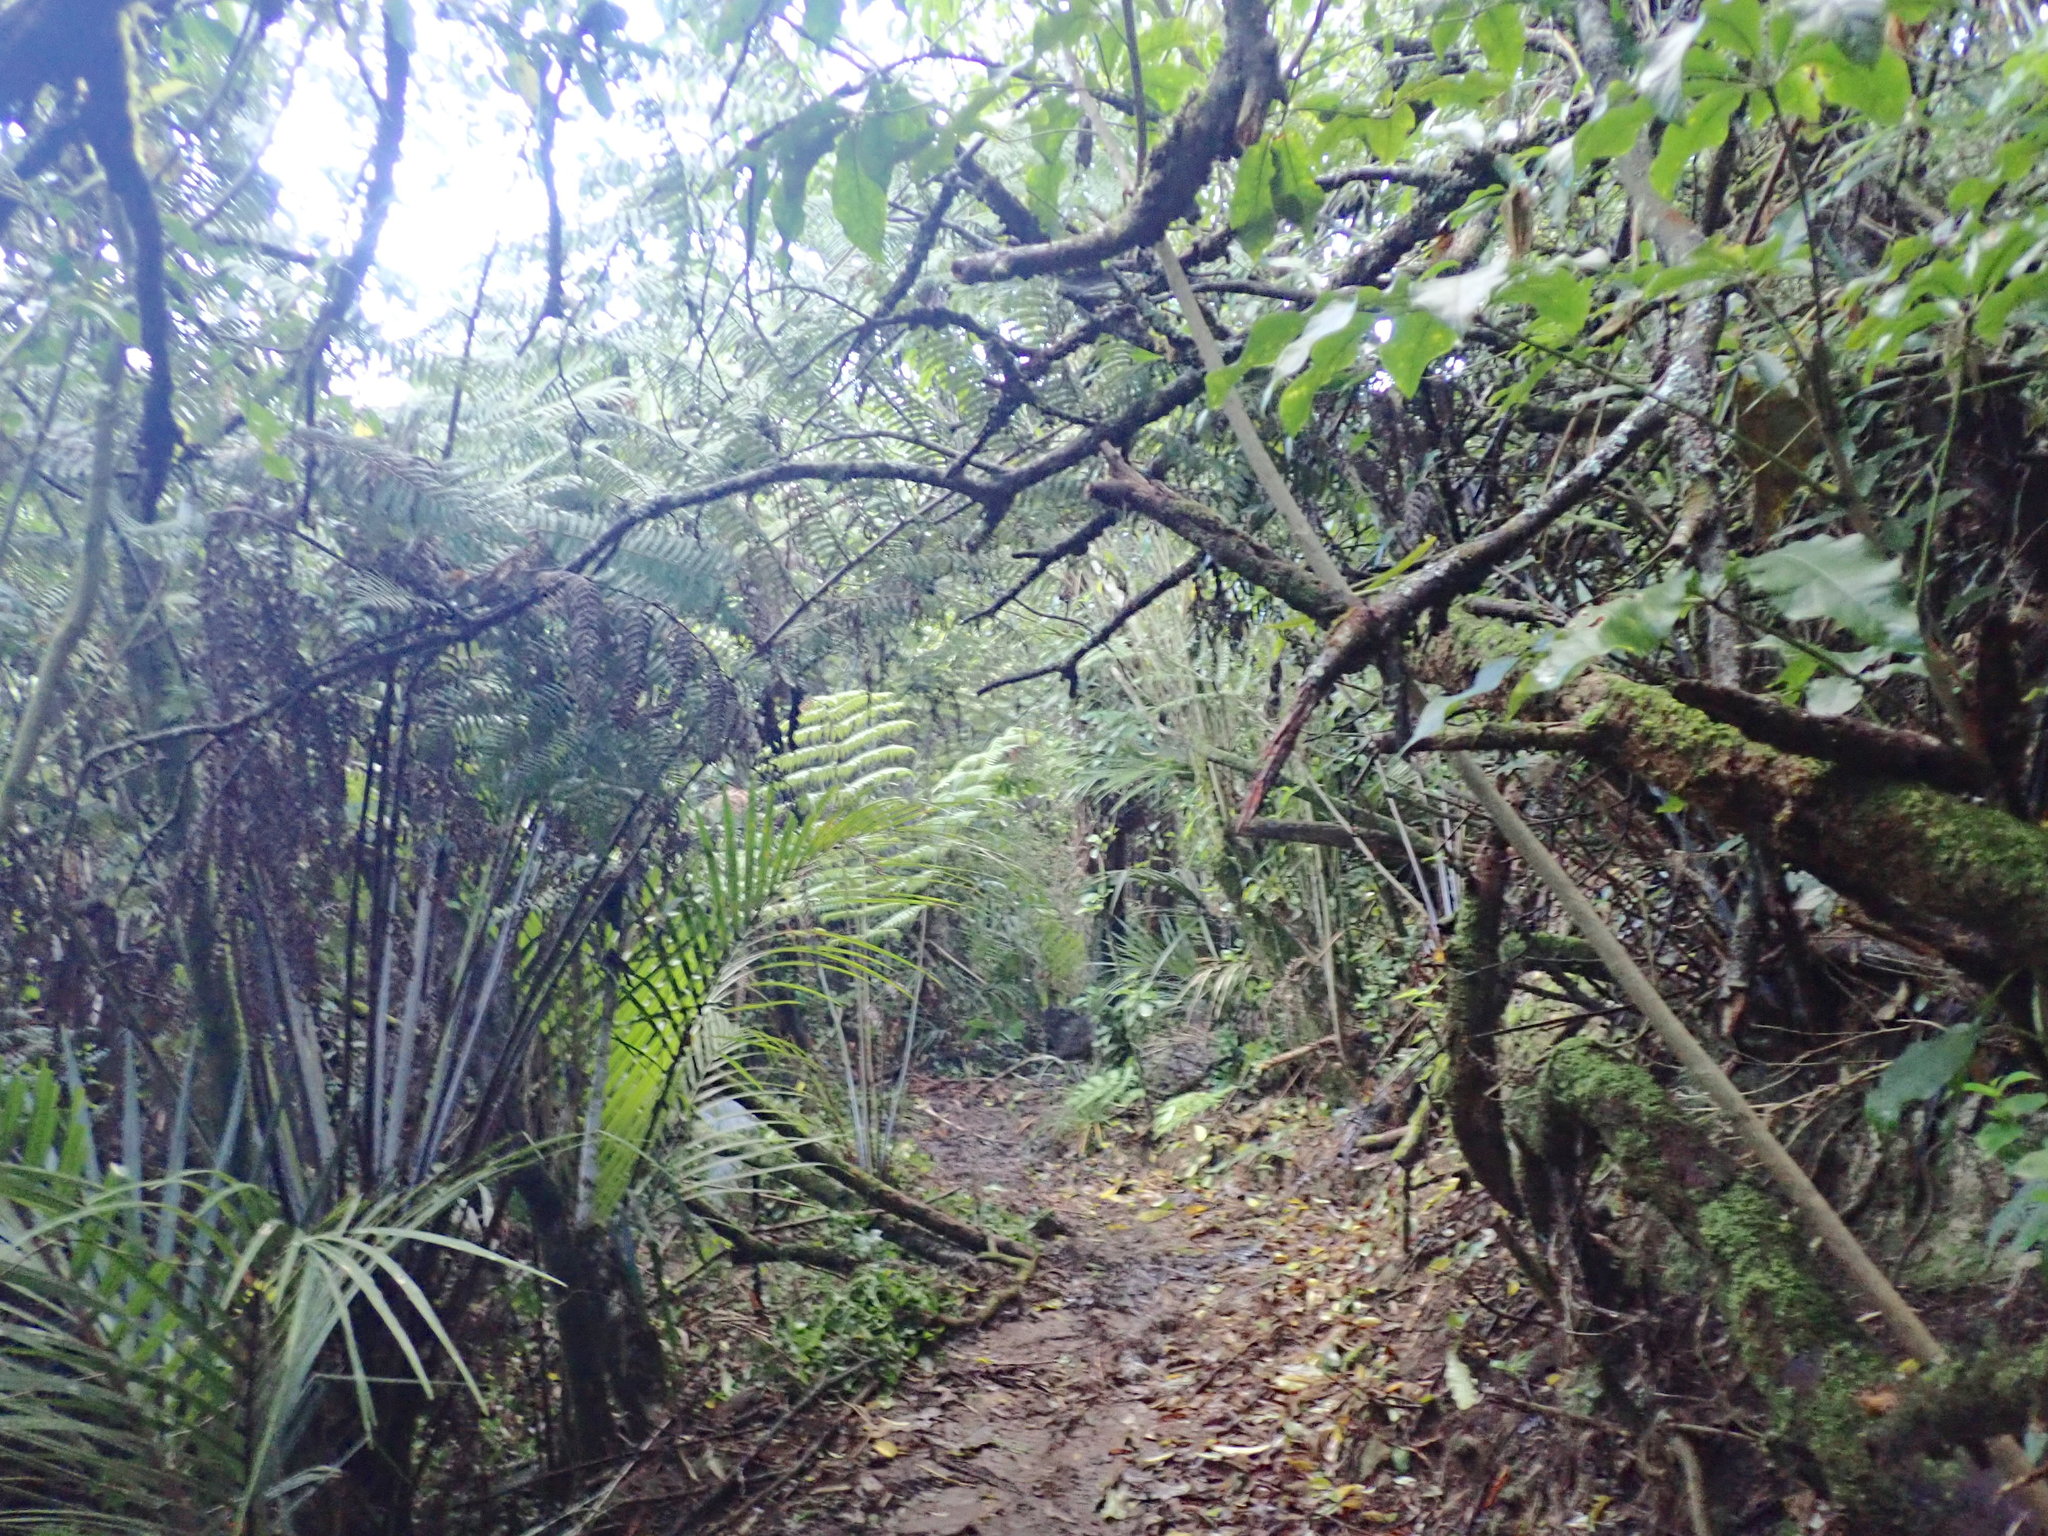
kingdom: Plantae
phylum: Tracheophyta
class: Liliopsida
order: Arecales
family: Arecaceae
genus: Rhopalostylis
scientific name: Rhopalostylis sapida
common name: Feather-duster palm
